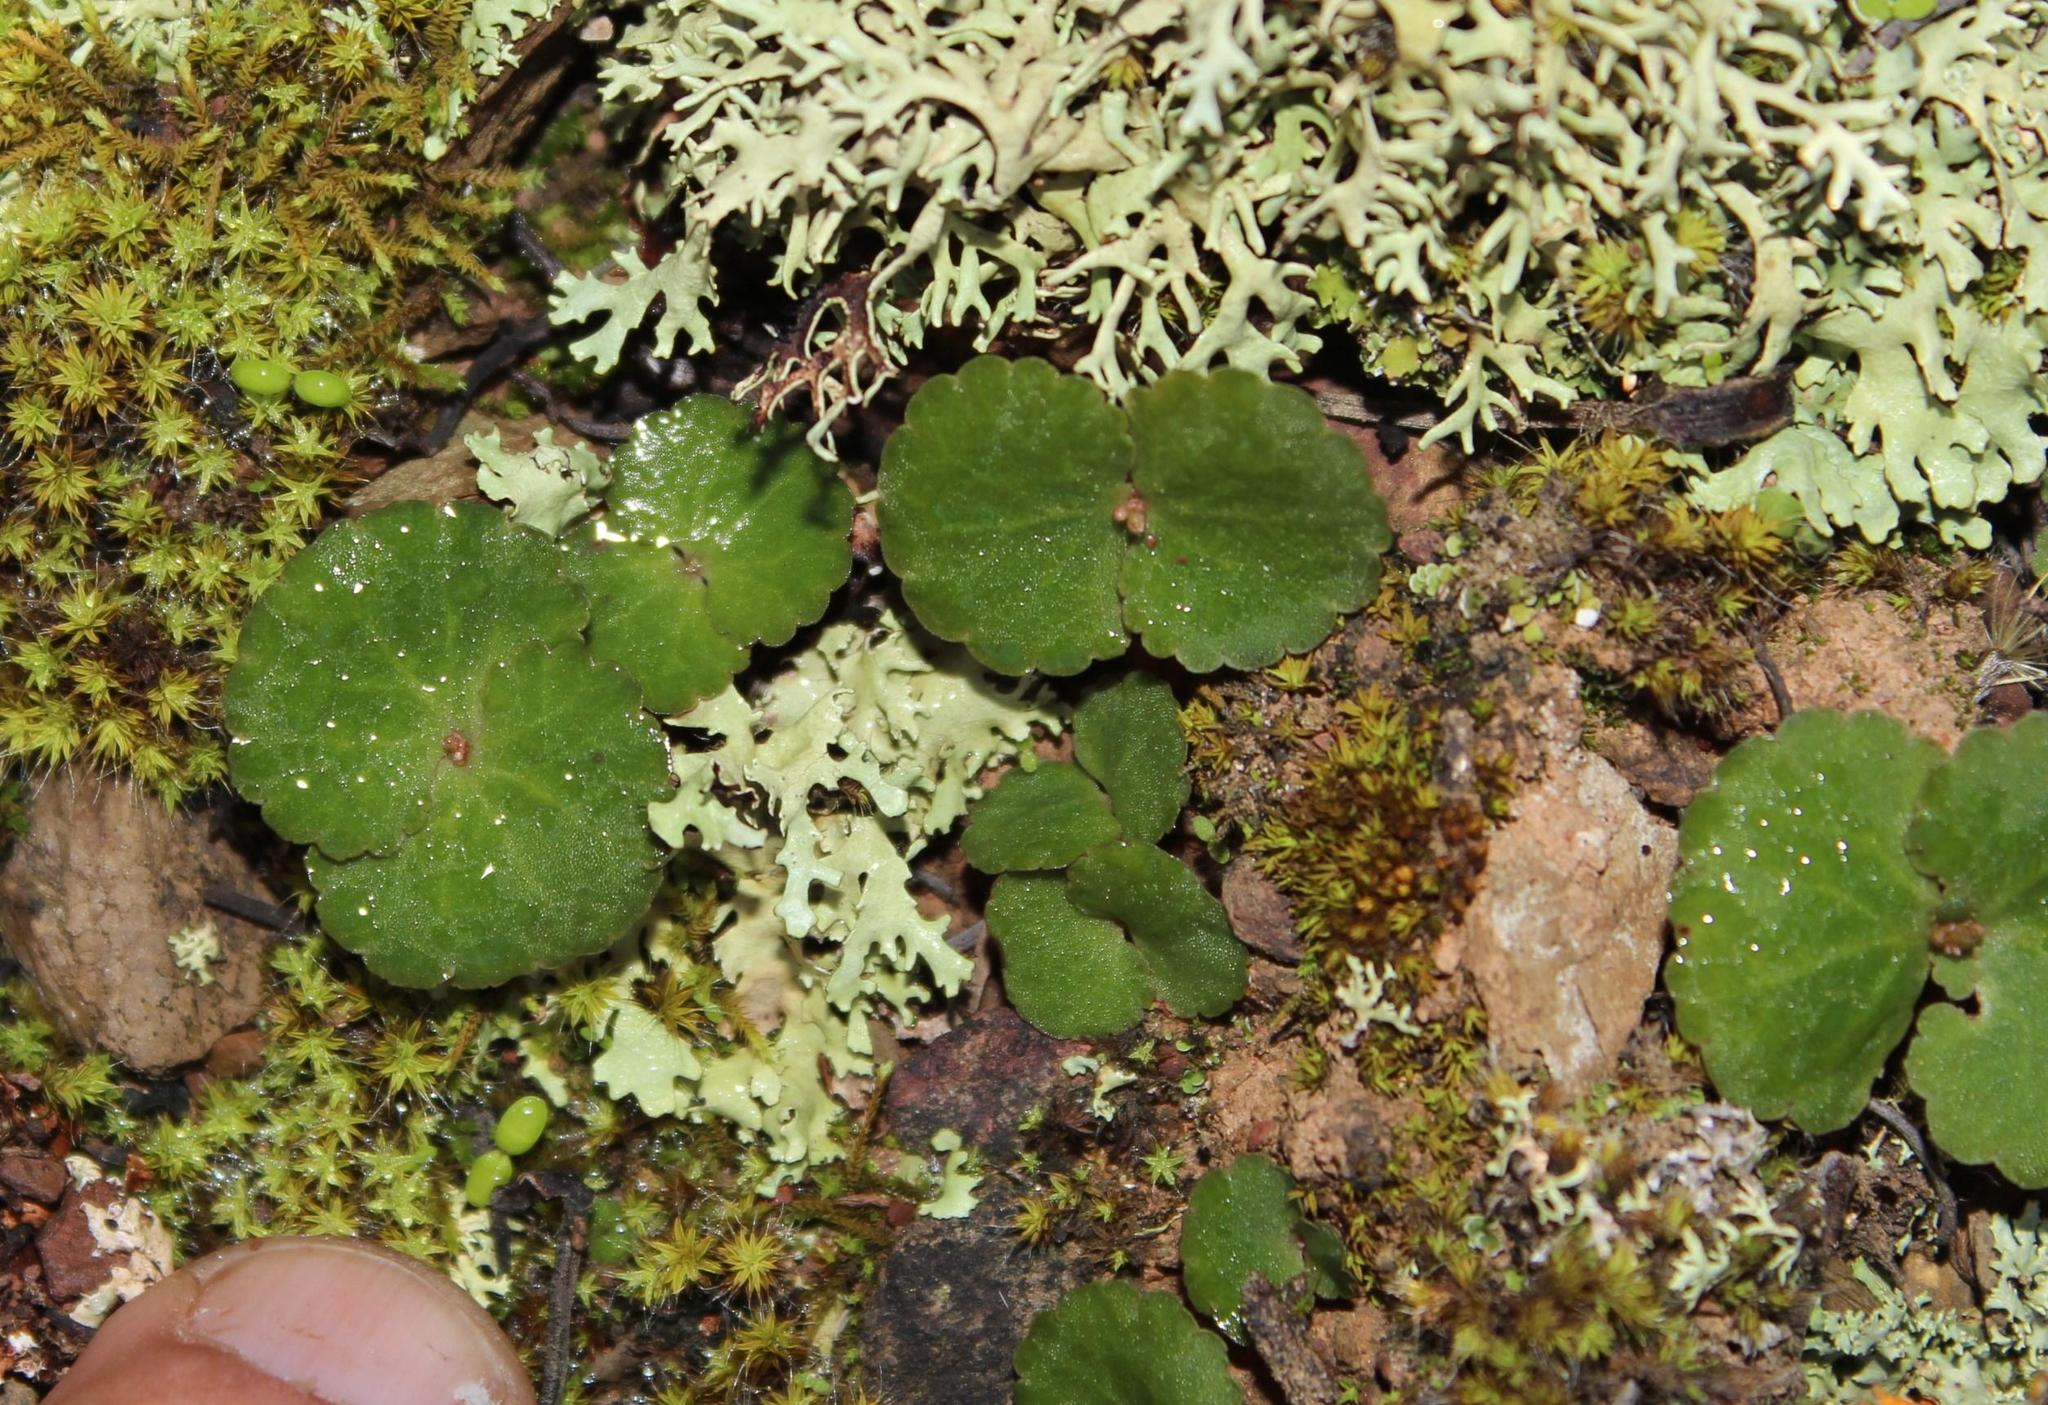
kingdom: Plantae
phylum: Tracheophyta
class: Magnoliopsida
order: Saxifragales
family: Crassulaceae
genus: Crassula
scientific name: Crassula umbella
